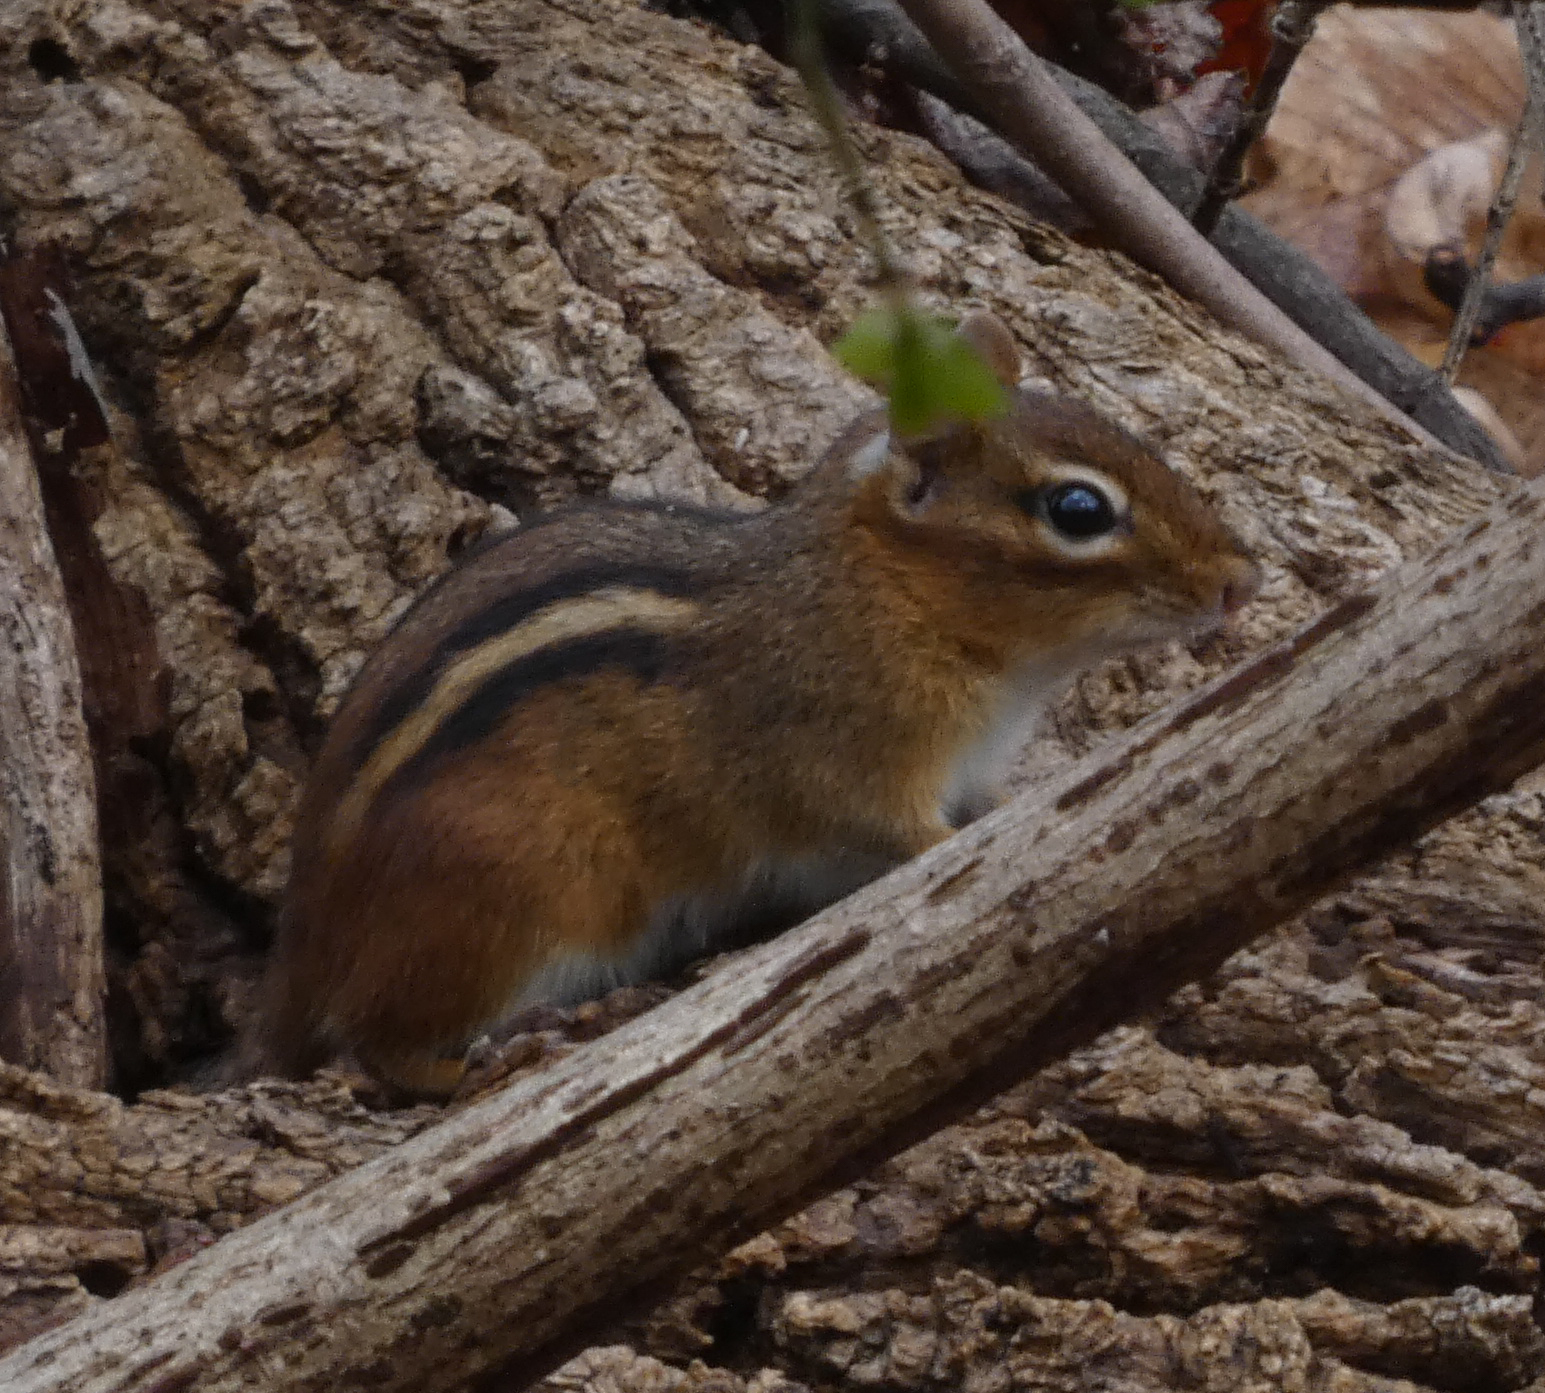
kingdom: Animalia
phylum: Chordata
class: Mammalia
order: Rodentia
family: Sciuridae
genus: Tamias
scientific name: Tamias striatus
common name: Eastern chipmunk
